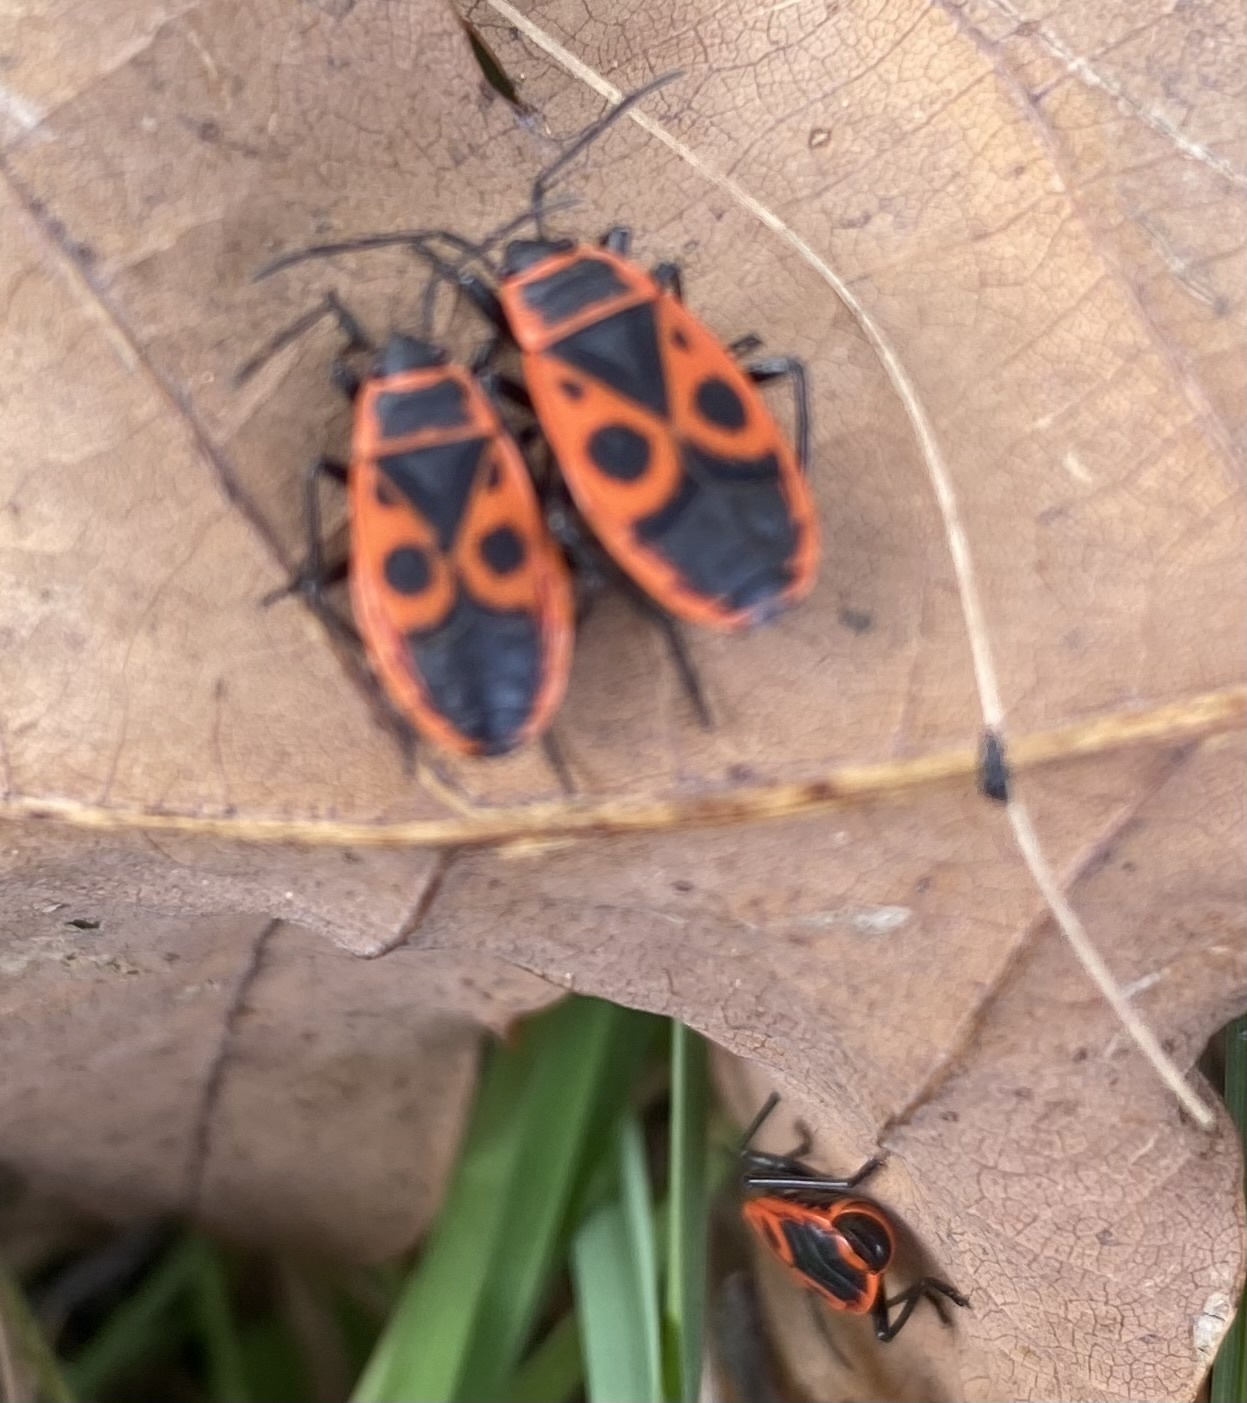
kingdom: Animalia
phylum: Arthropoda
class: Insecta
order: Hemiptera
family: Pyrrhocoridae
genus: Pyrrhocoris
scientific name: Pyrrhocoris apterus
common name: Firebug
